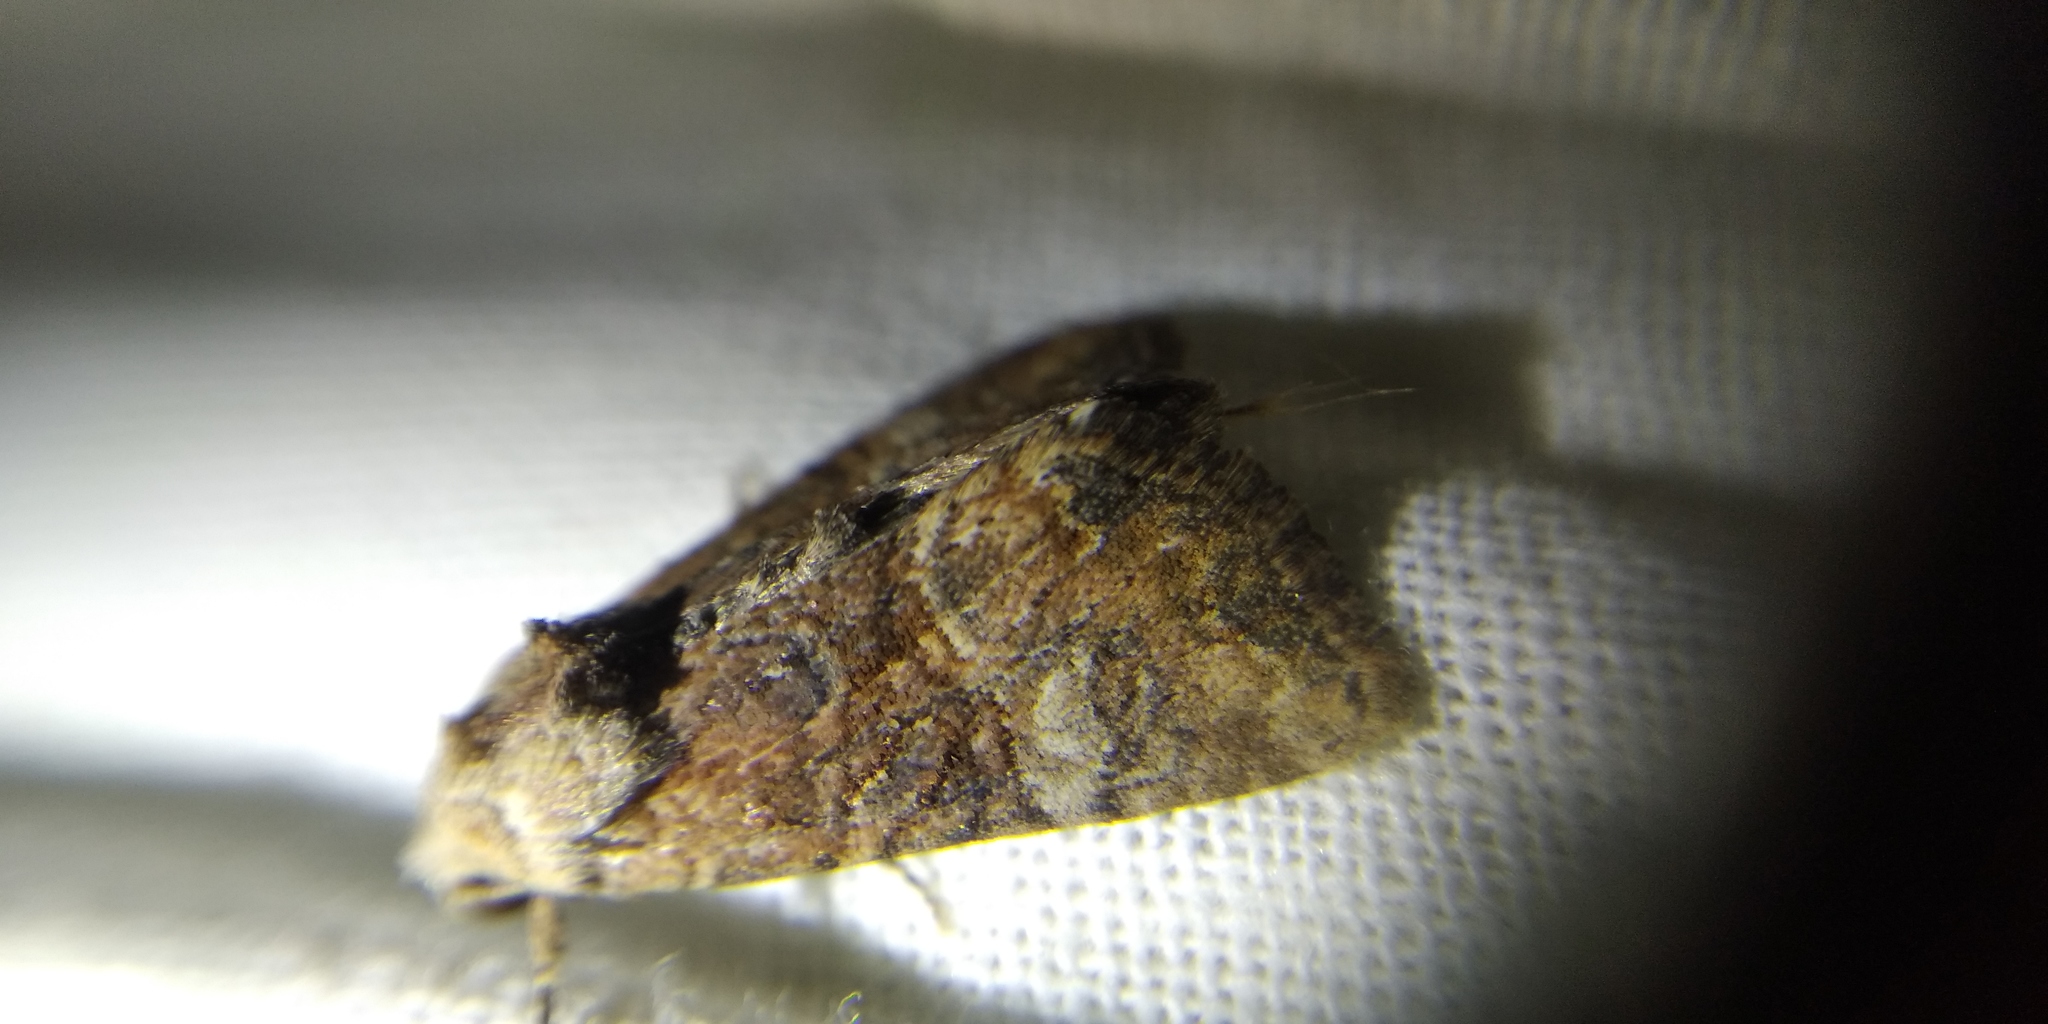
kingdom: Animalia
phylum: Arthropoda
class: Insecta
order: Lepidoptera
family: Noctuidae
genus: Mesoligia
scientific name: Mesoligia furuncula
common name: Cloaked minor
